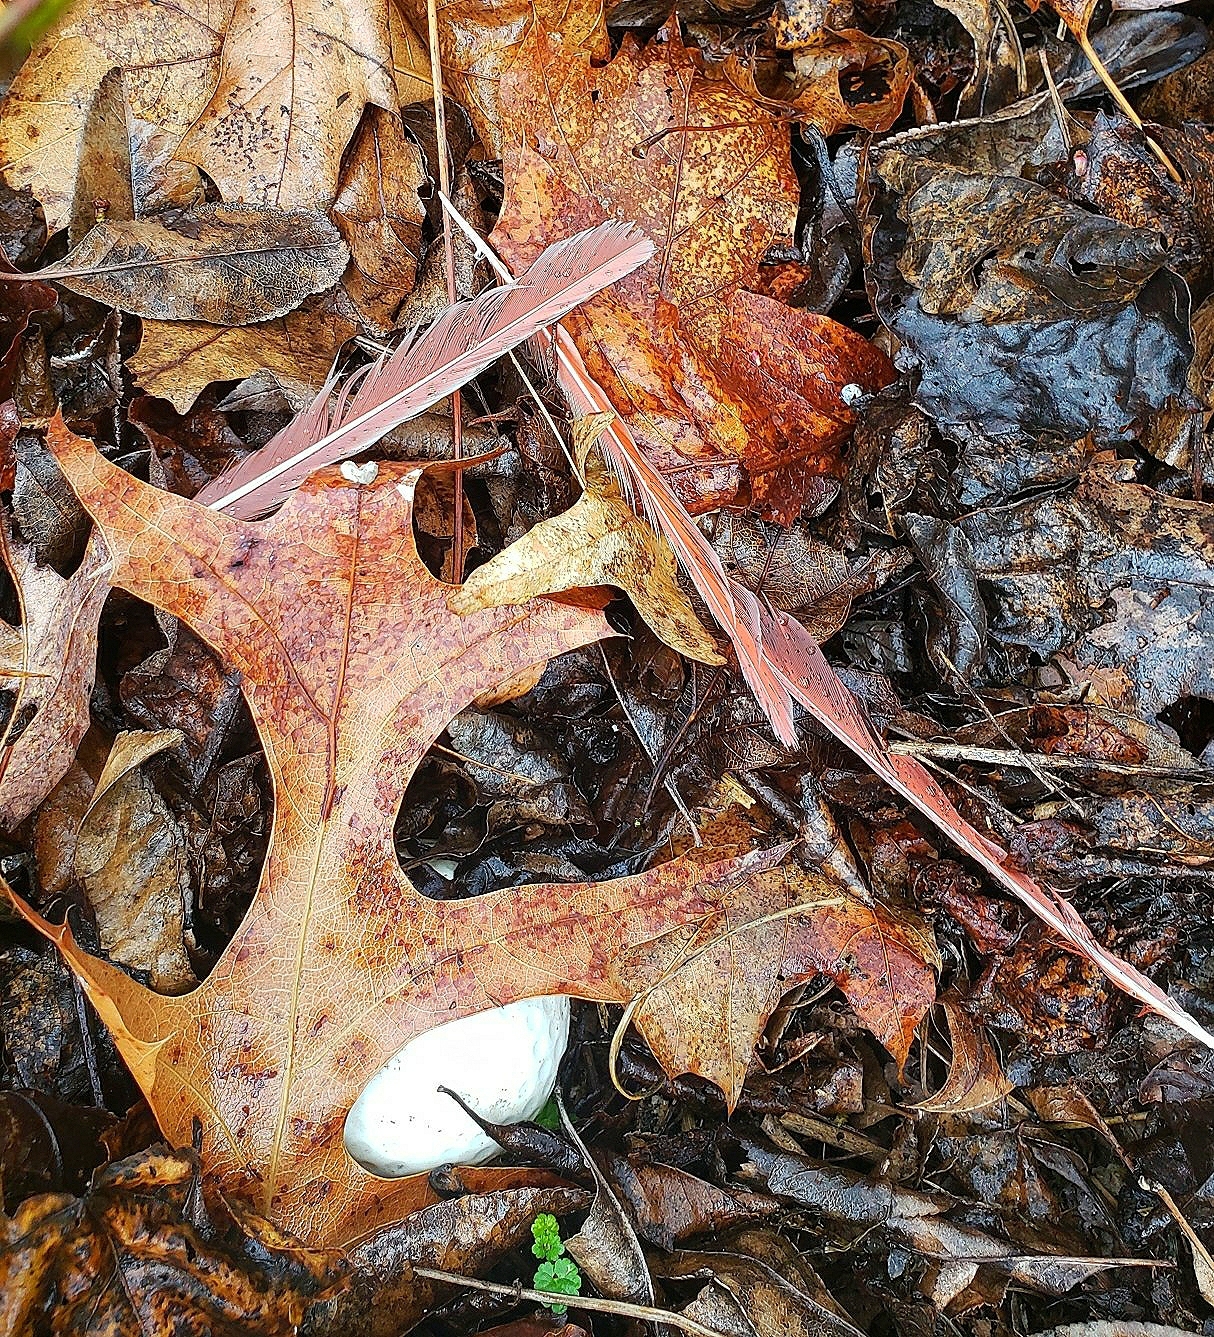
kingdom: Animalia
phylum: Chordata
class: Aves
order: Passeriformes
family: Cardinalidae
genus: Cardinalis
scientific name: Cardinalis cardinalis
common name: Northern cardinal
